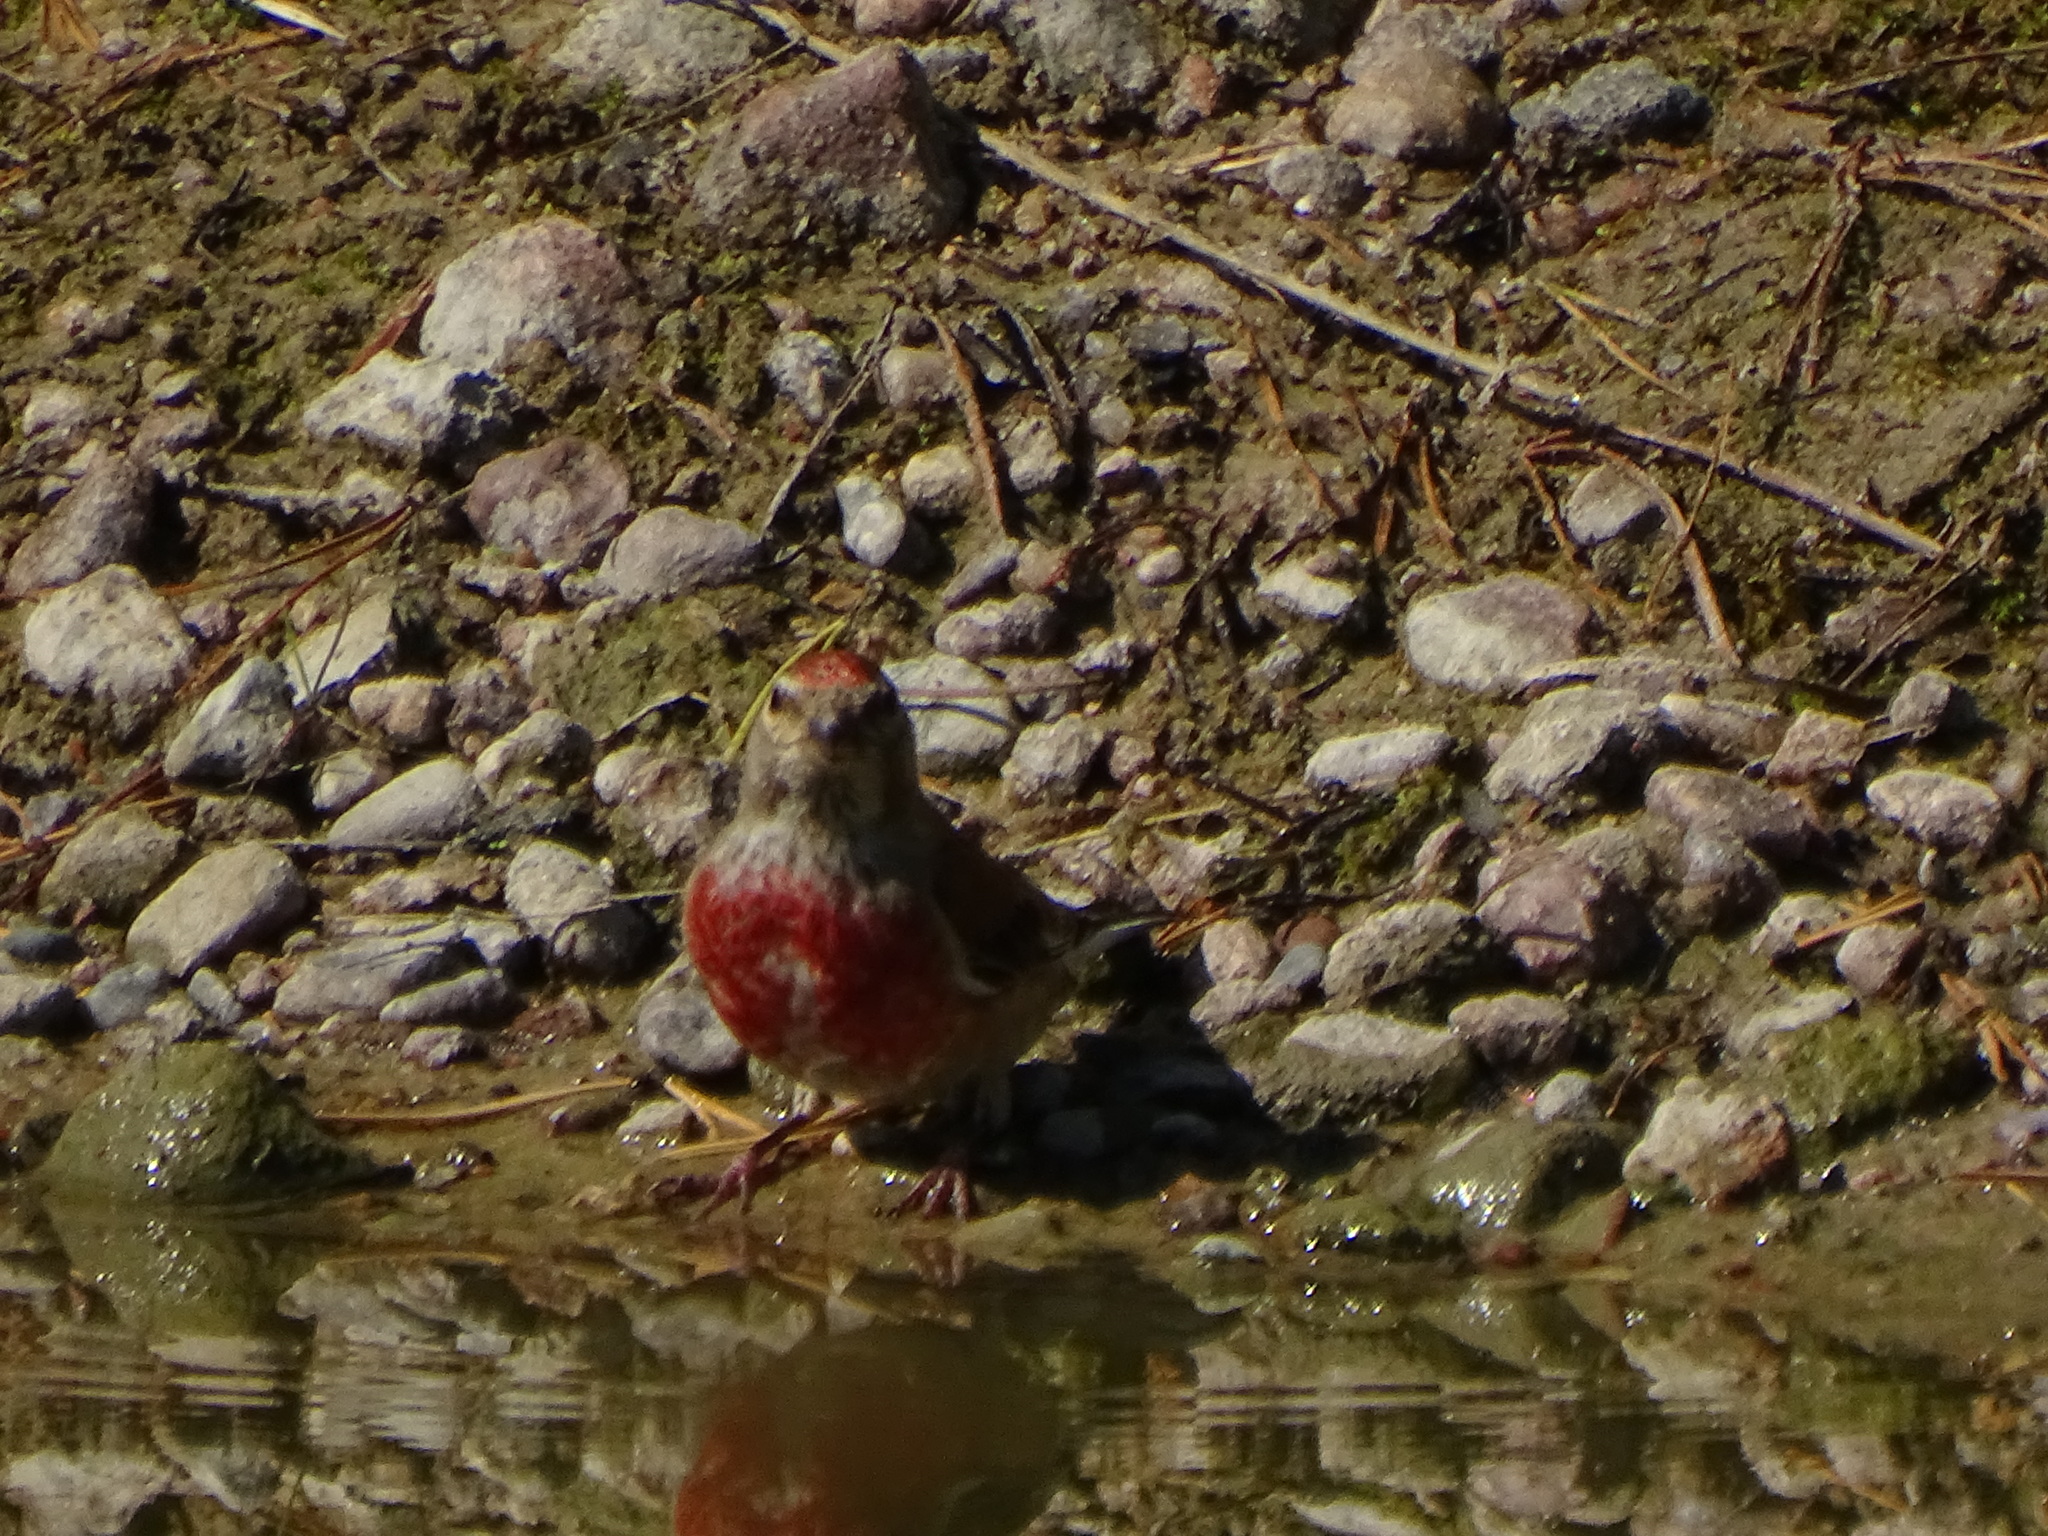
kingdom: Animalia
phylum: Chordata
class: Aves
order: Passeriformes
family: Fringillidae
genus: Linaria
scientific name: Linaria cannabina
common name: Common linnet
